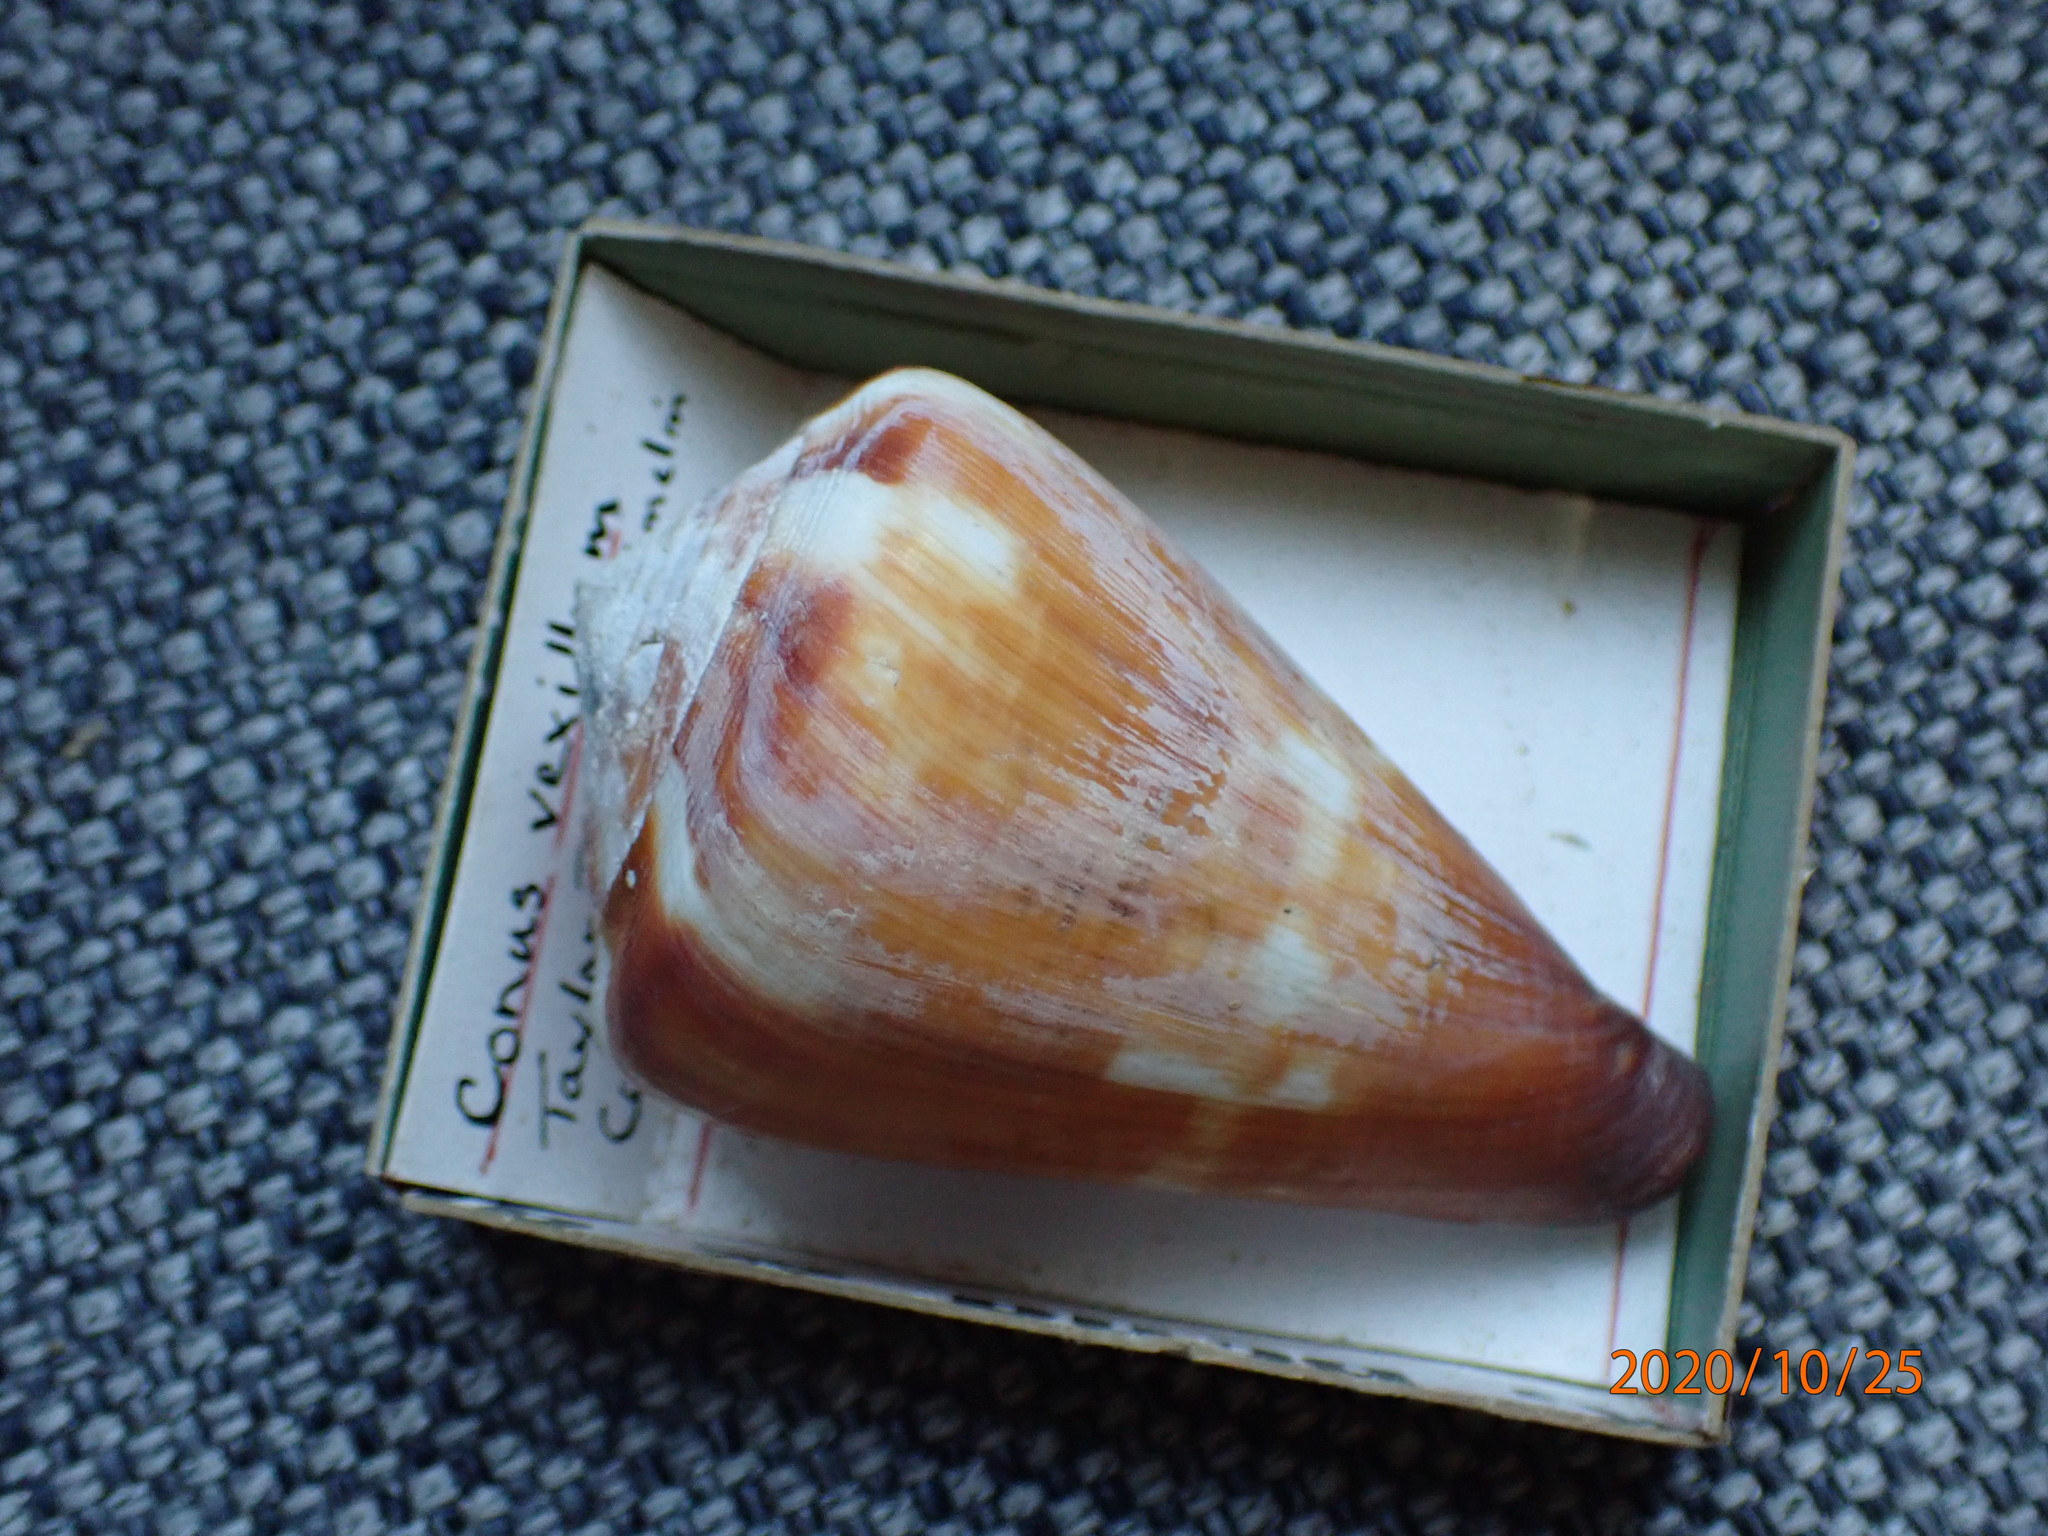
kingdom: Animalia
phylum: Mollusca
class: Gastropoda
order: Neogastropoda
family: Conidae
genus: Conus
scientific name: Conus vexillum
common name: Flag cone
